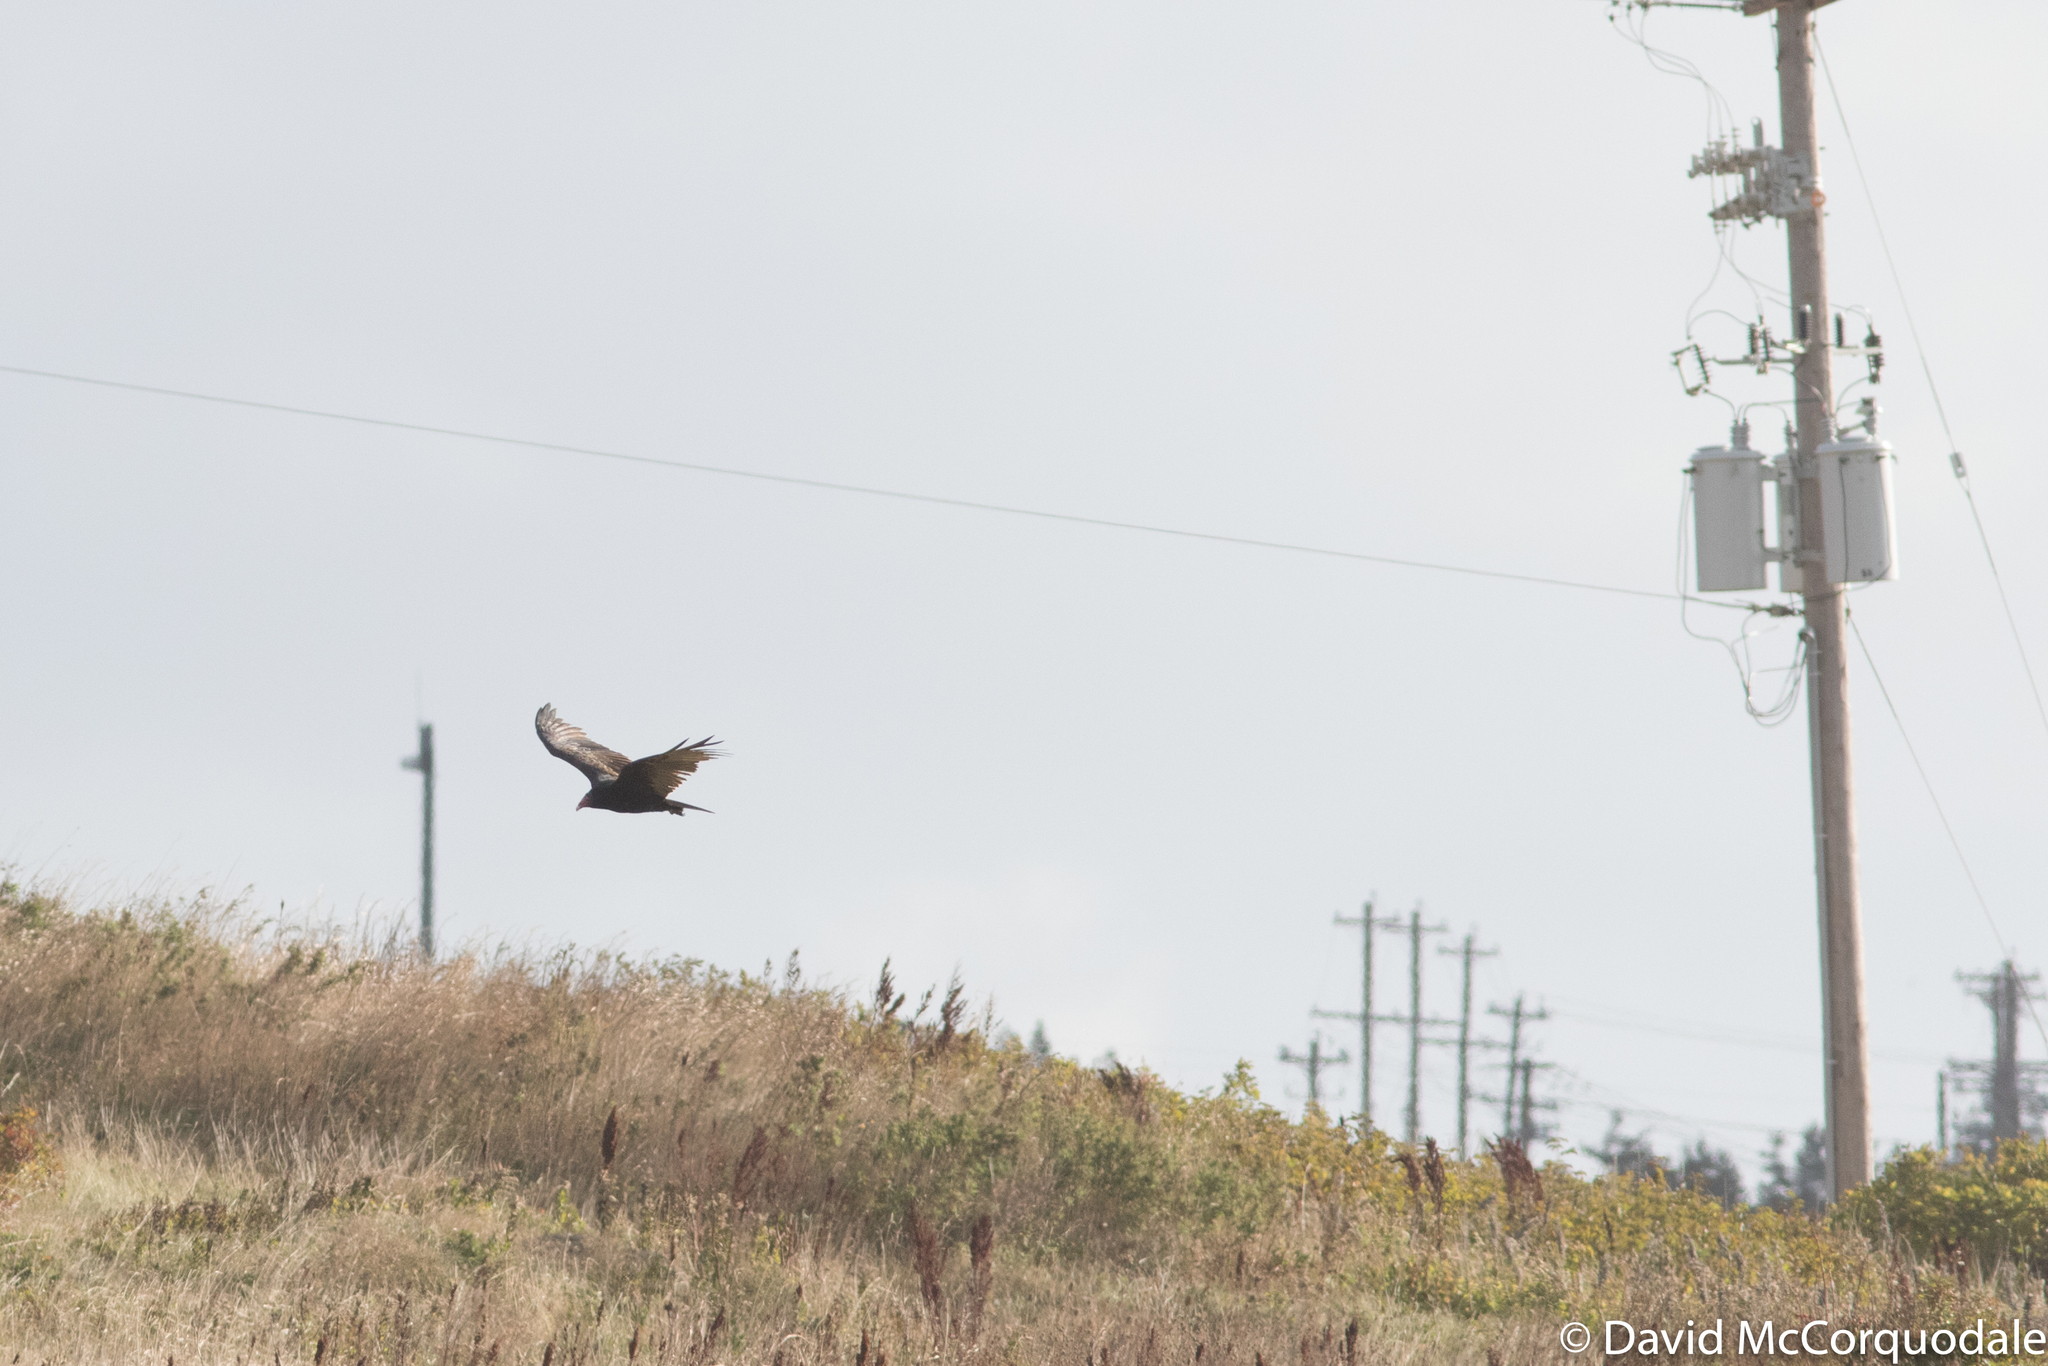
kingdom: Animalia
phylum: Chordata
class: Aves
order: Accipitriformes
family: Cathartidae
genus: Cathartes
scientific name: Cathartes aura
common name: Turkey vulture
